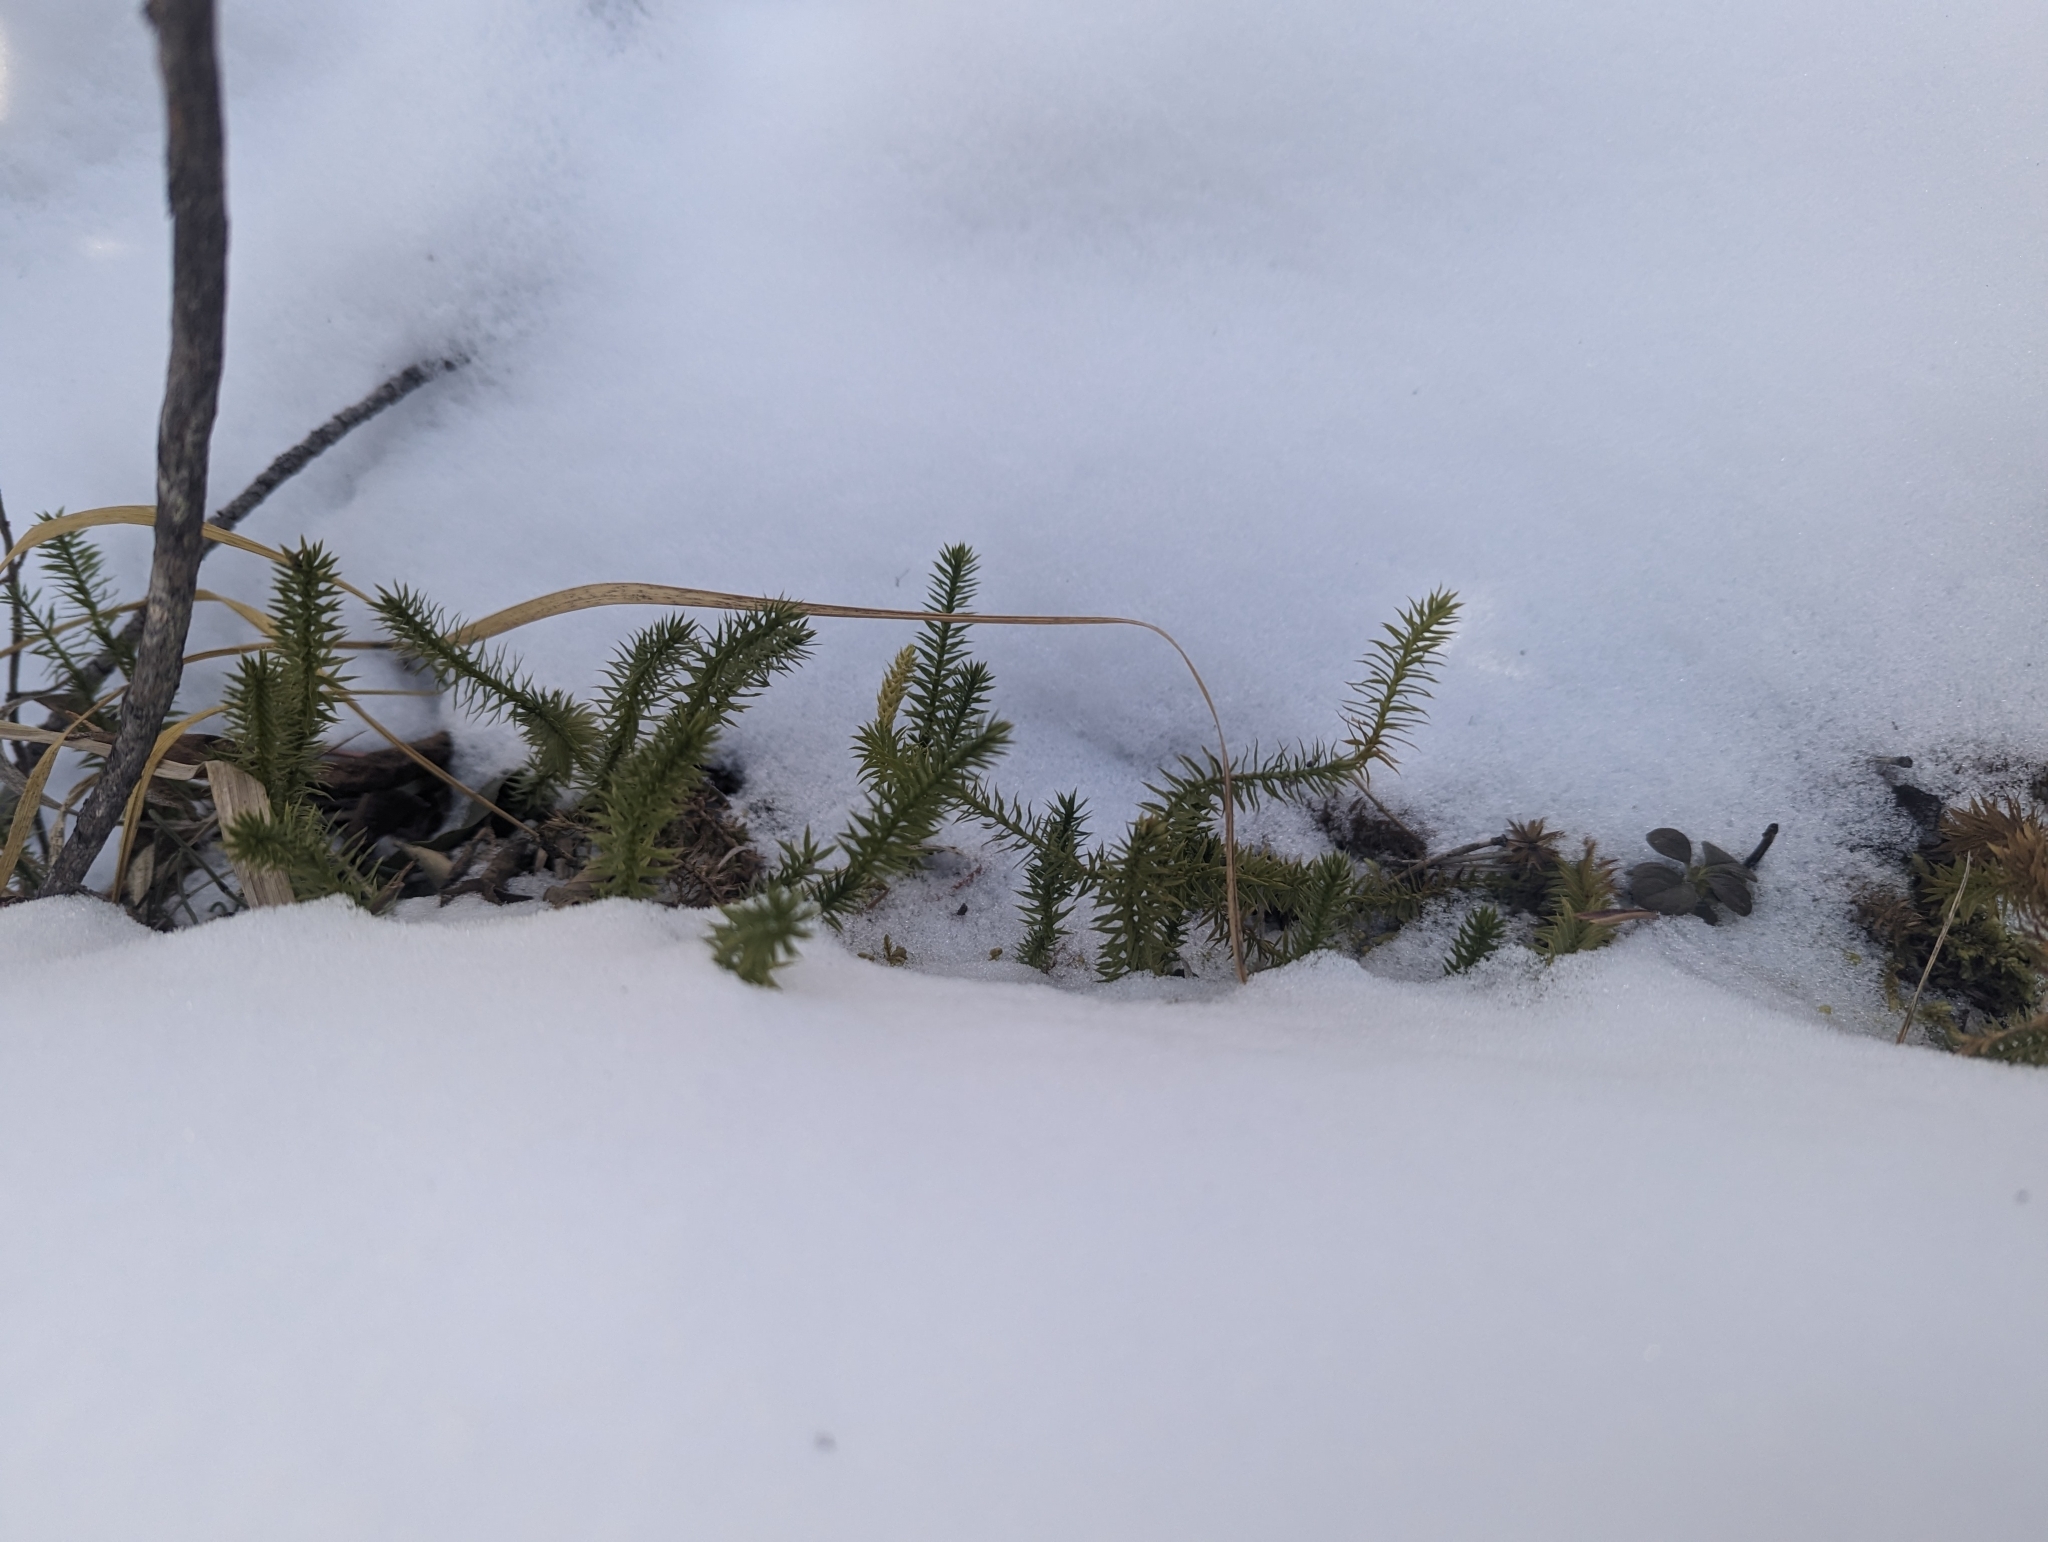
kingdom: Plantae
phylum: Tracheophyta
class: Lycopodiopsida
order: Lycopodiales
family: Lycopodiaceae
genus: Spinulum
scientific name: Spinulum annotinum
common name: Interrupted club-moss
